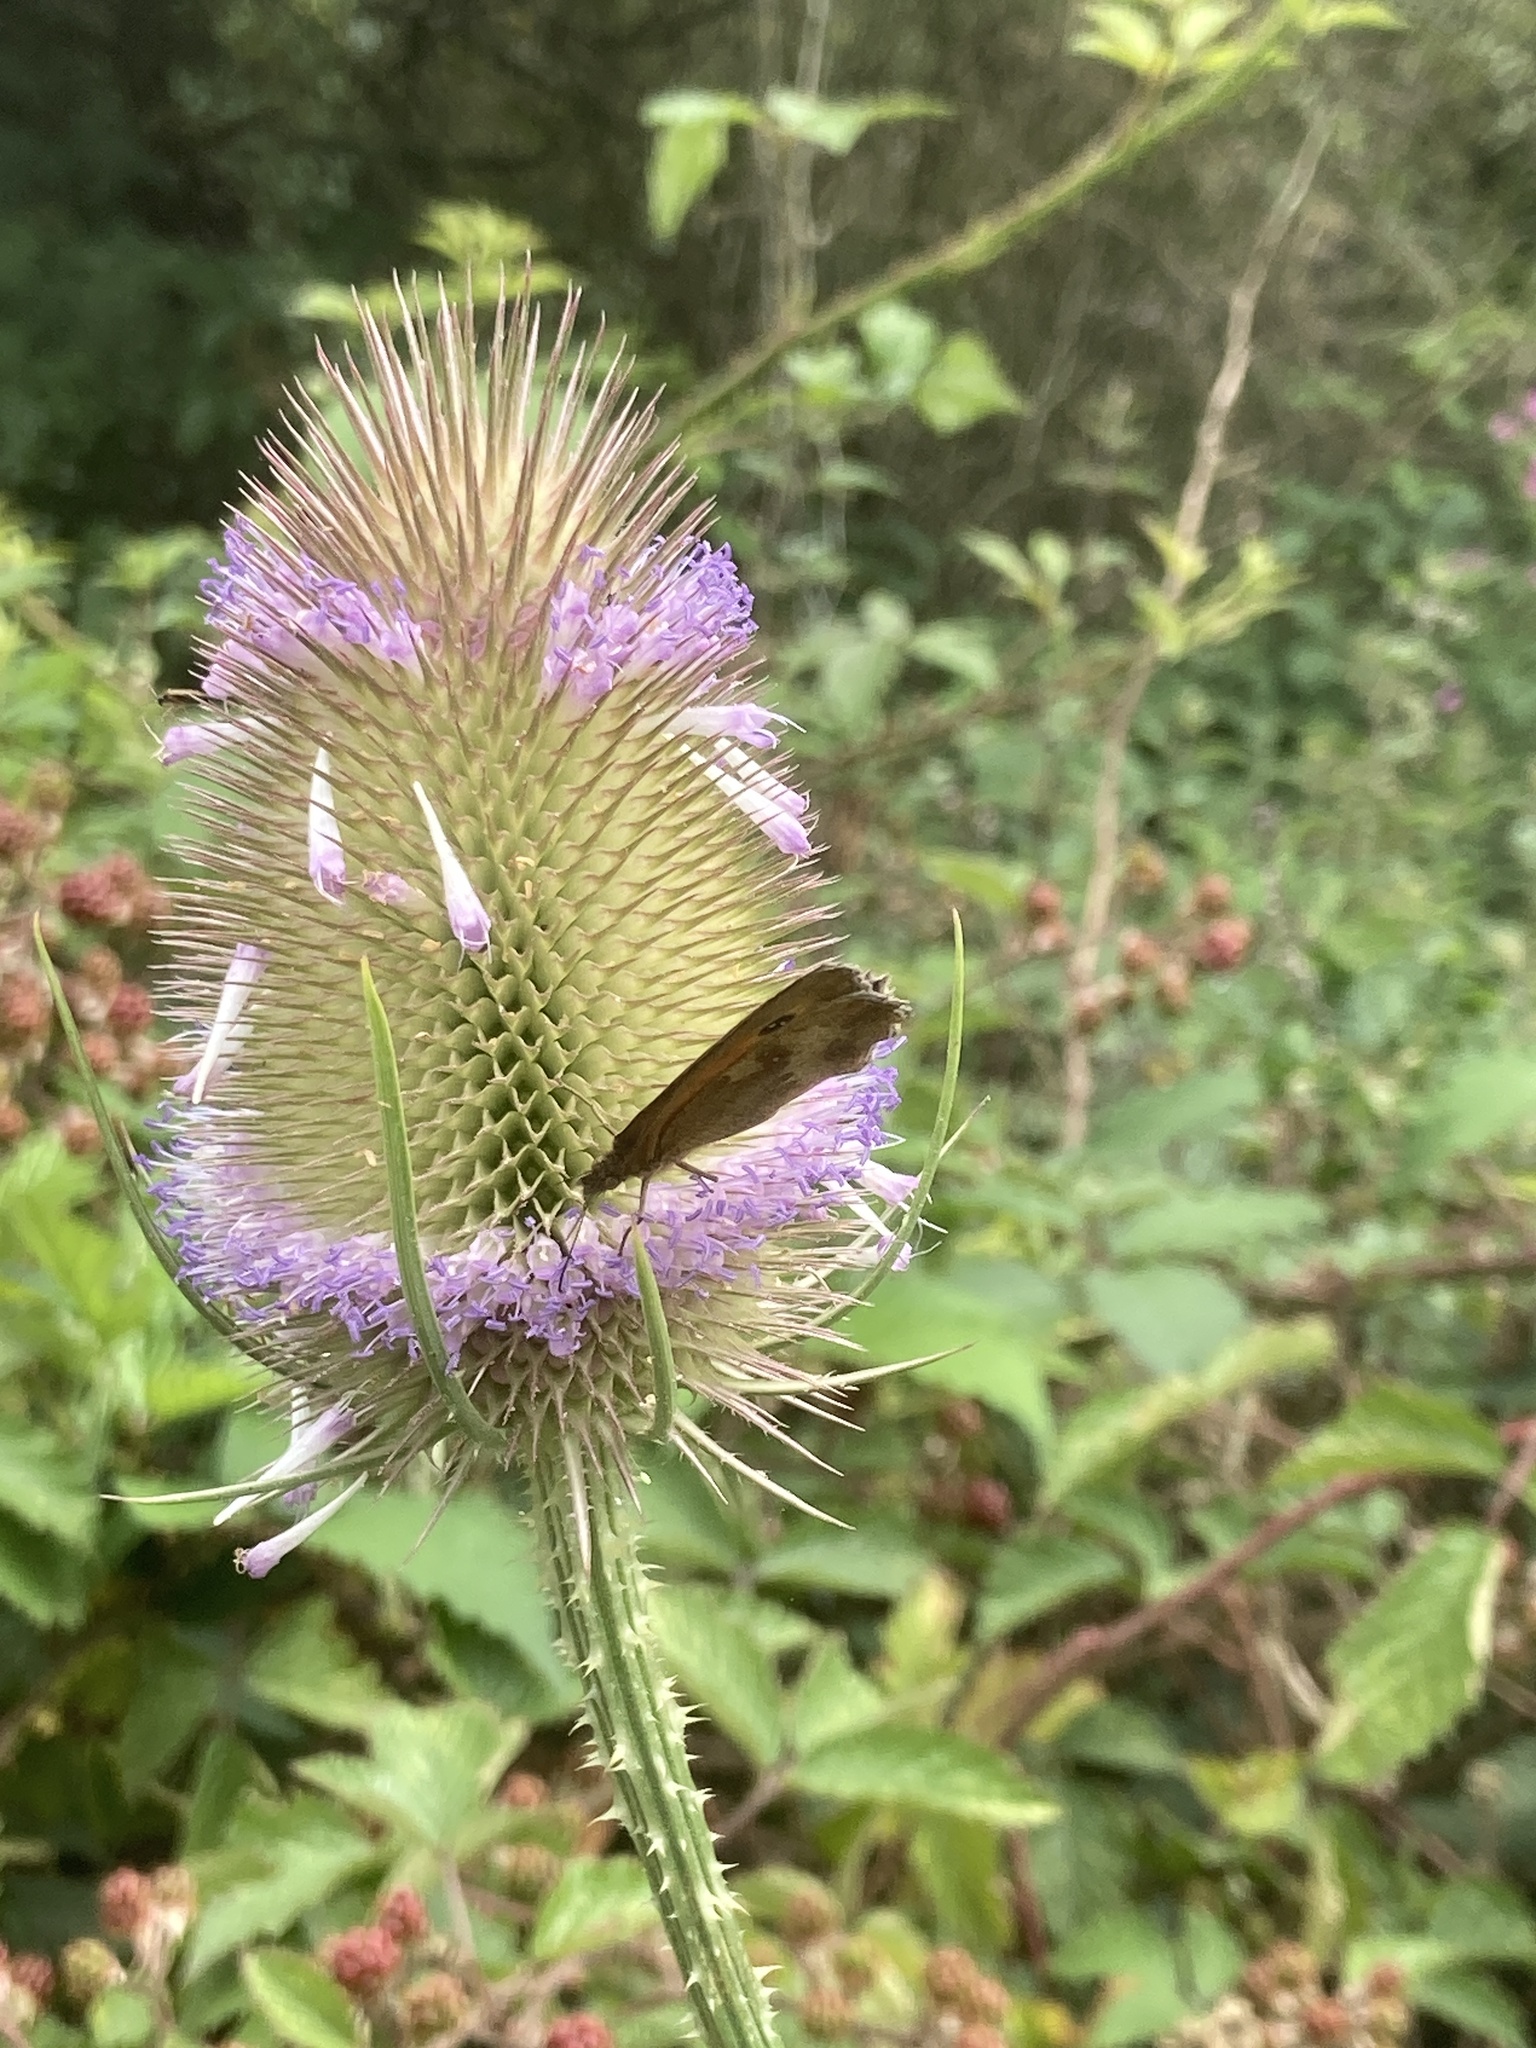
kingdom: Plantae
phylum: Tracheophyta
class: Magnoliopsida
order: Dipsacales
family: Caprifoliaceae
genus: Dipsacus
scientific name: Dipsacus fullonum
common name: Teasel
